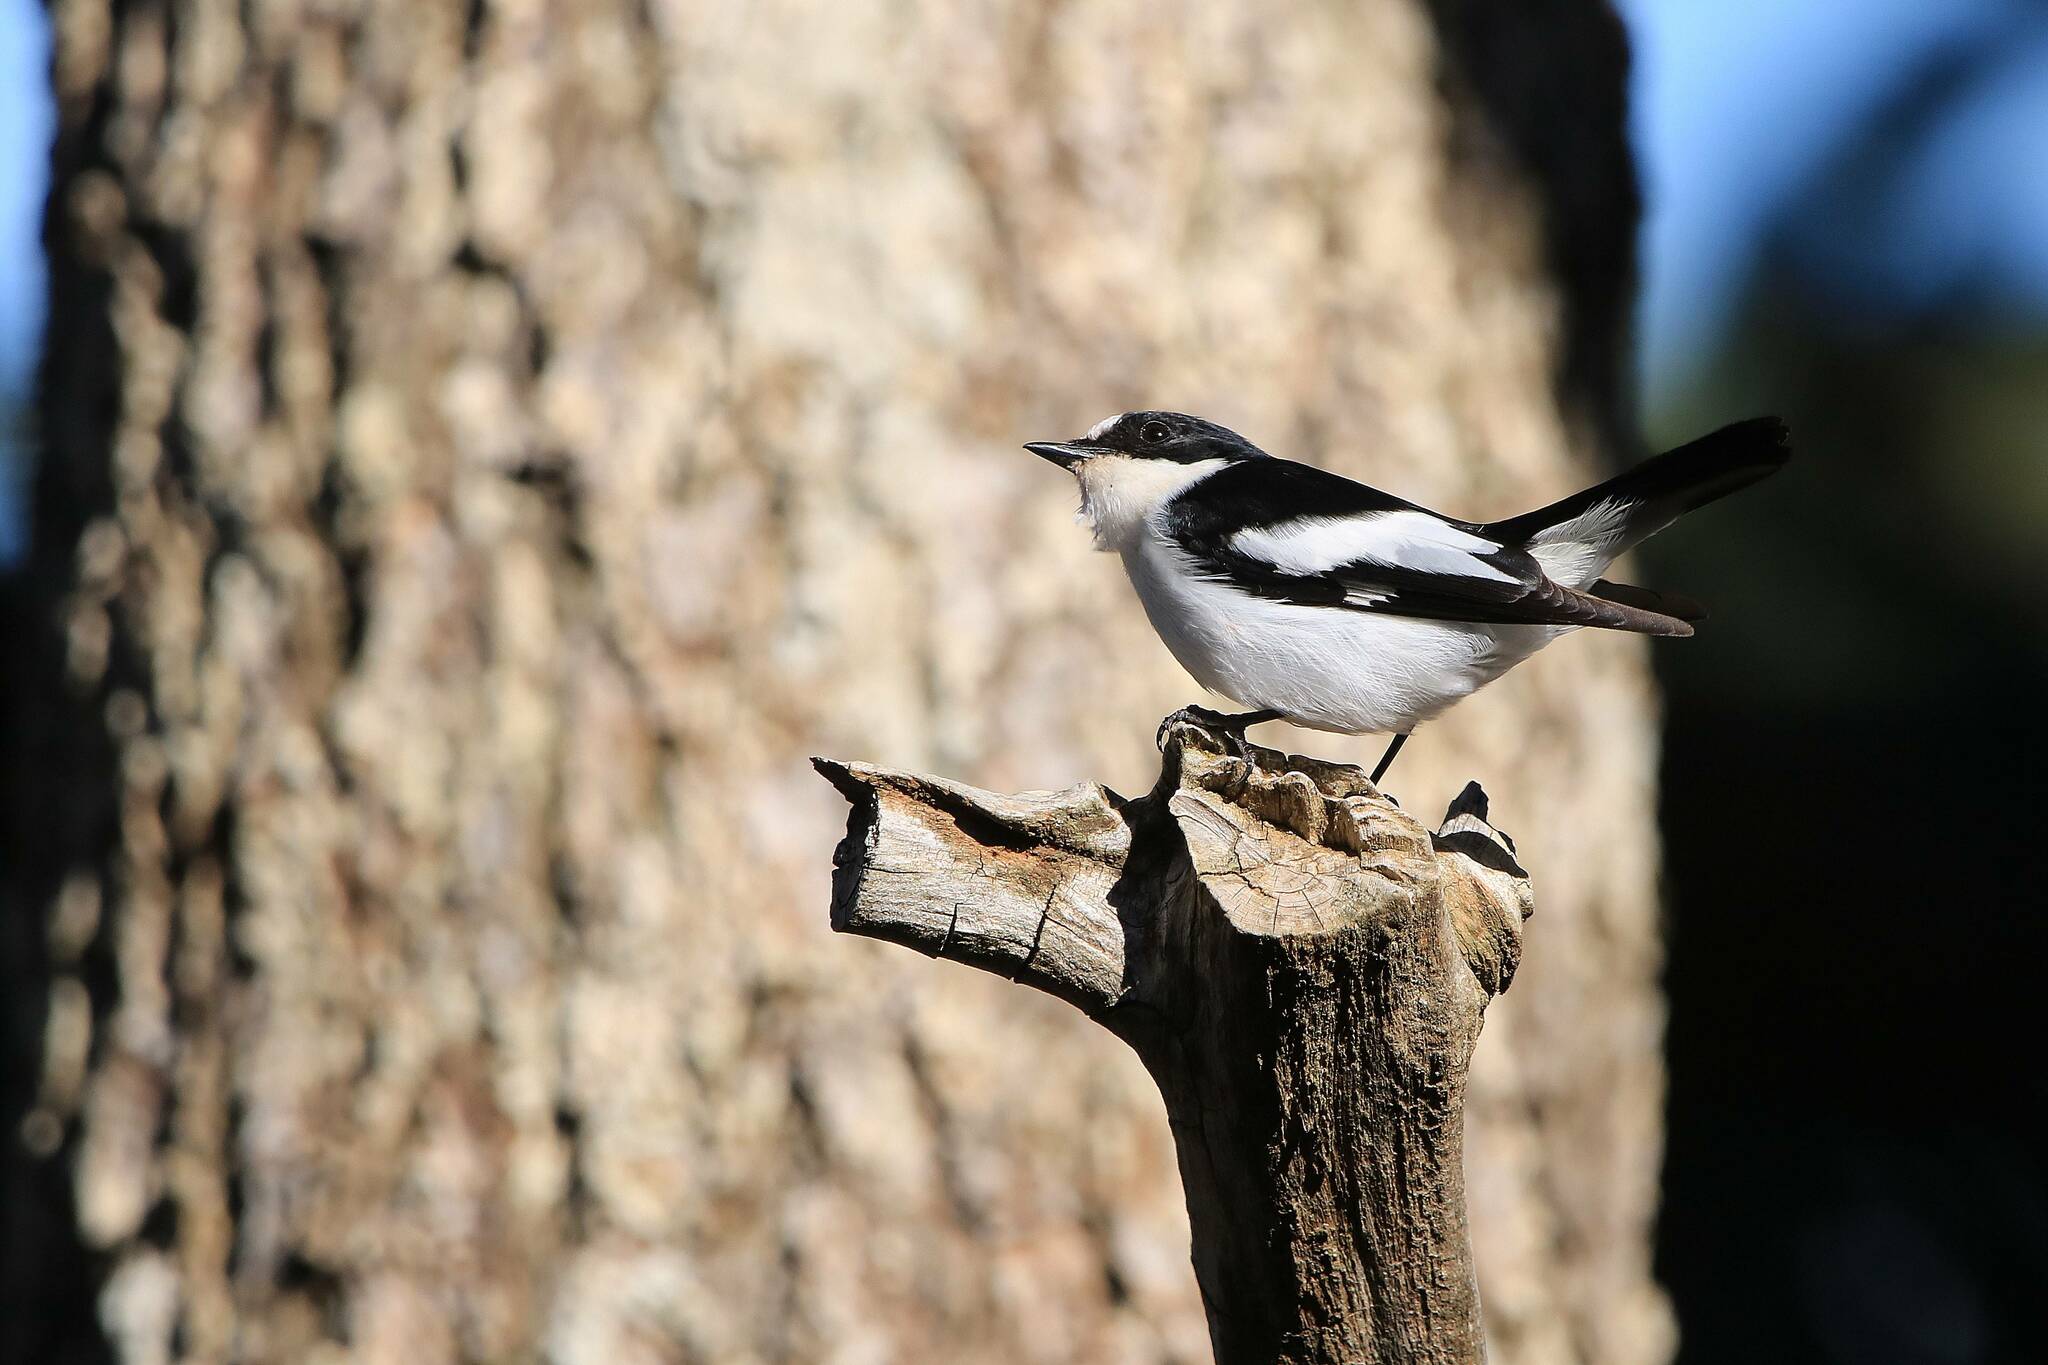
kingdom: Animalia
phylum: Chordata
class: Aves
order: Passeriformes
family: Muscicapidae
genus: Ficedula
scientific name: Ficedula speculigera
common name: Atlas pied flycatcher
